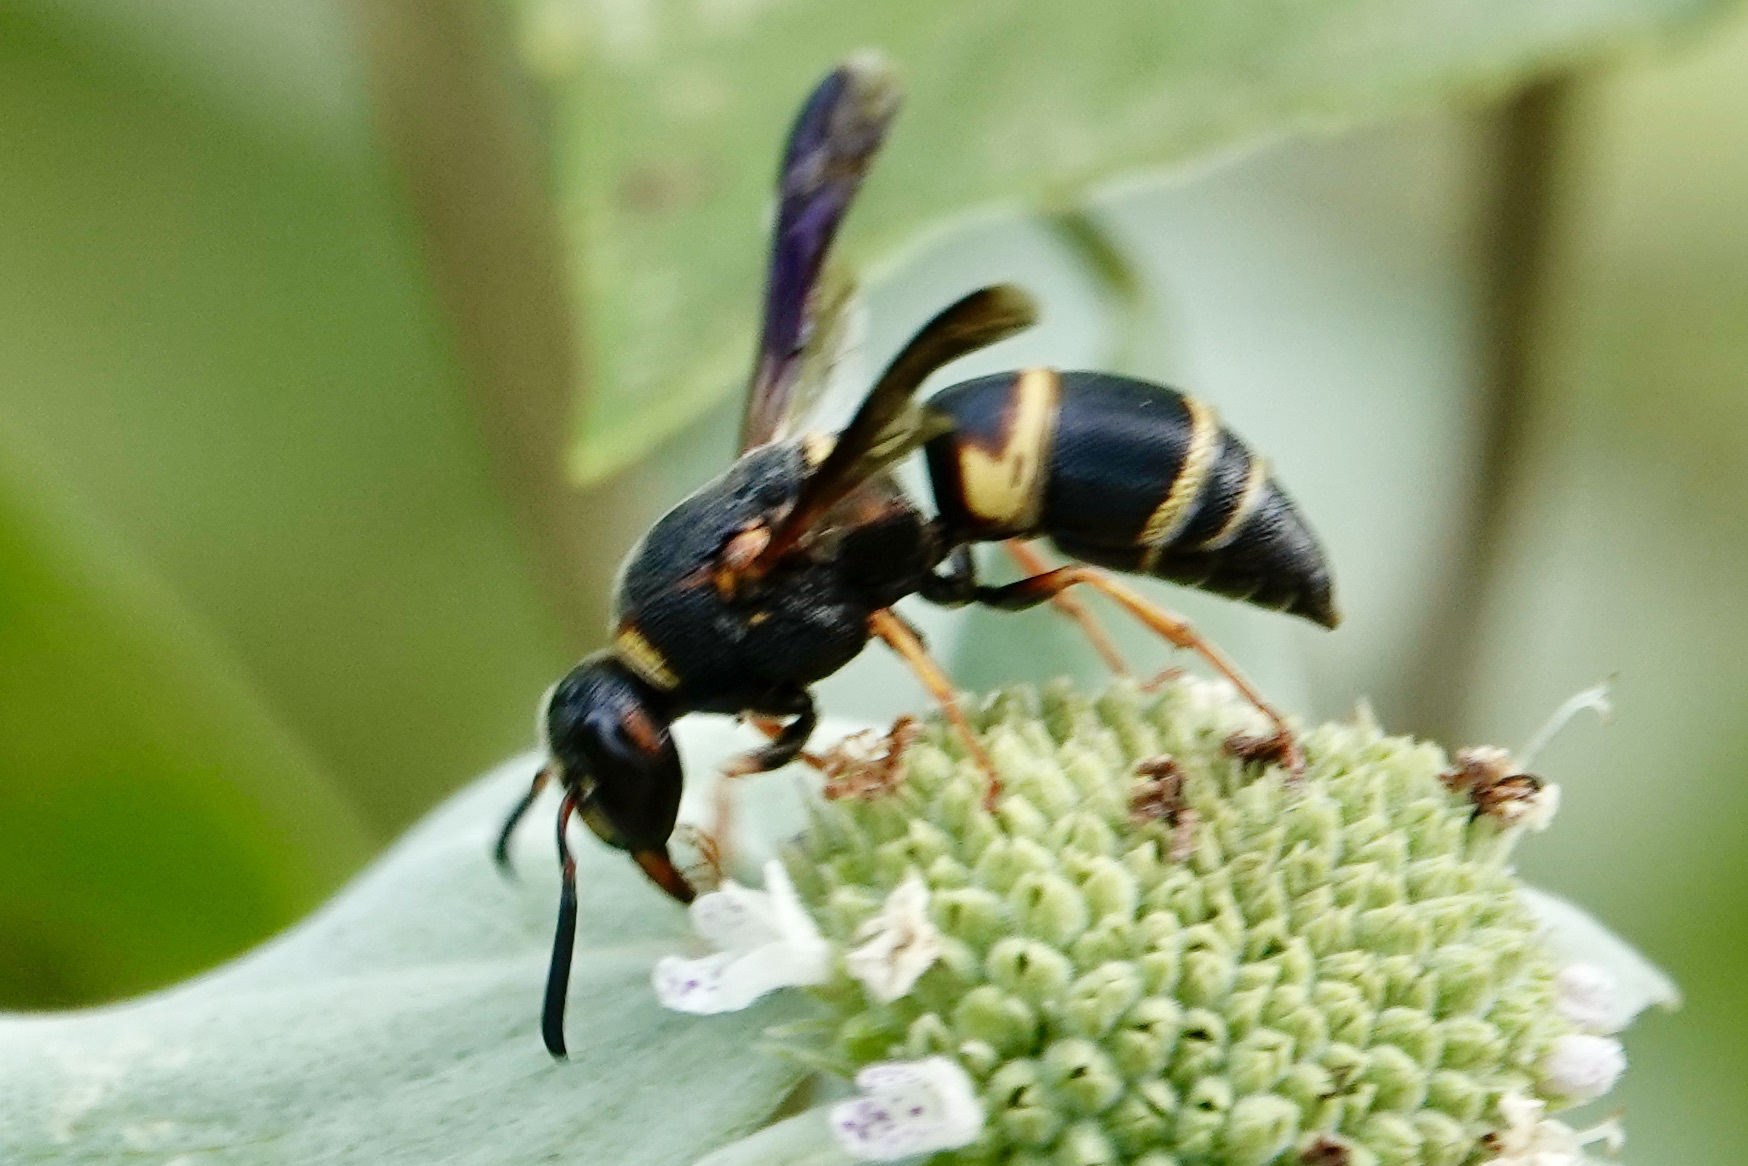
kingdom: Animalia
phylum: Arthropoda
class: Insecta
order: Hymenoptera
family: Eumenidae
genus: Euodynerus
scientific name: Euodynerus hidalgo
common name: Wasp
